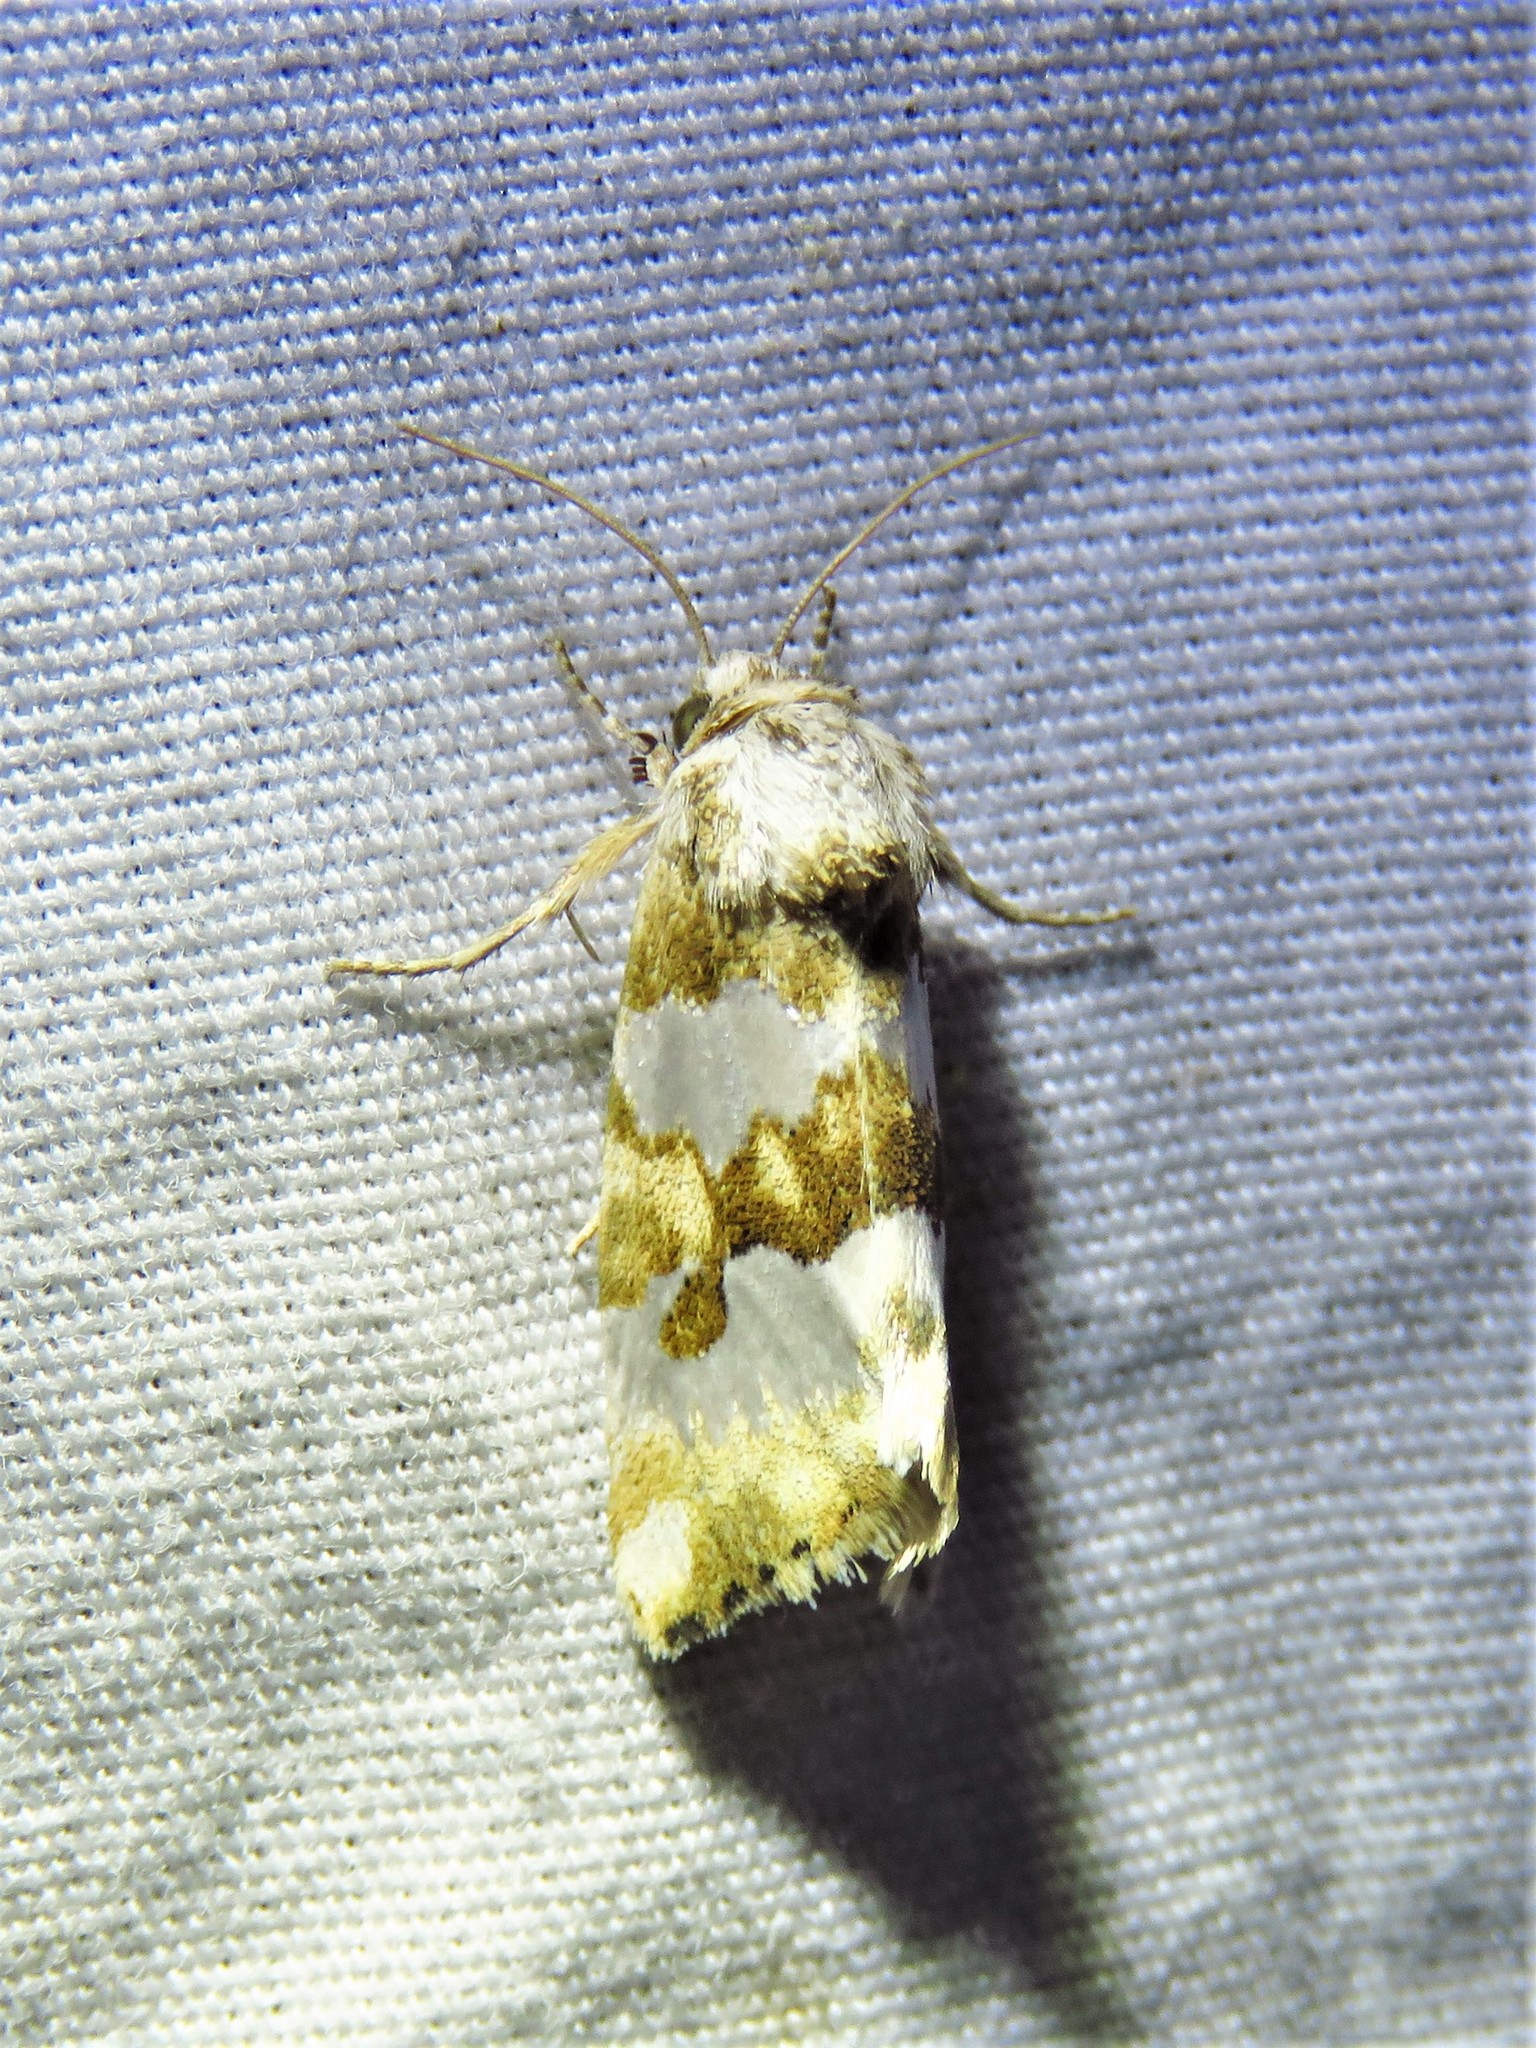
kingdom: Animalia
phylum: Arthropoda
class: Insecta
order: Lepidoptera
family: Noctuidae
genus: Schinia
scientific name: Schinia alencis
